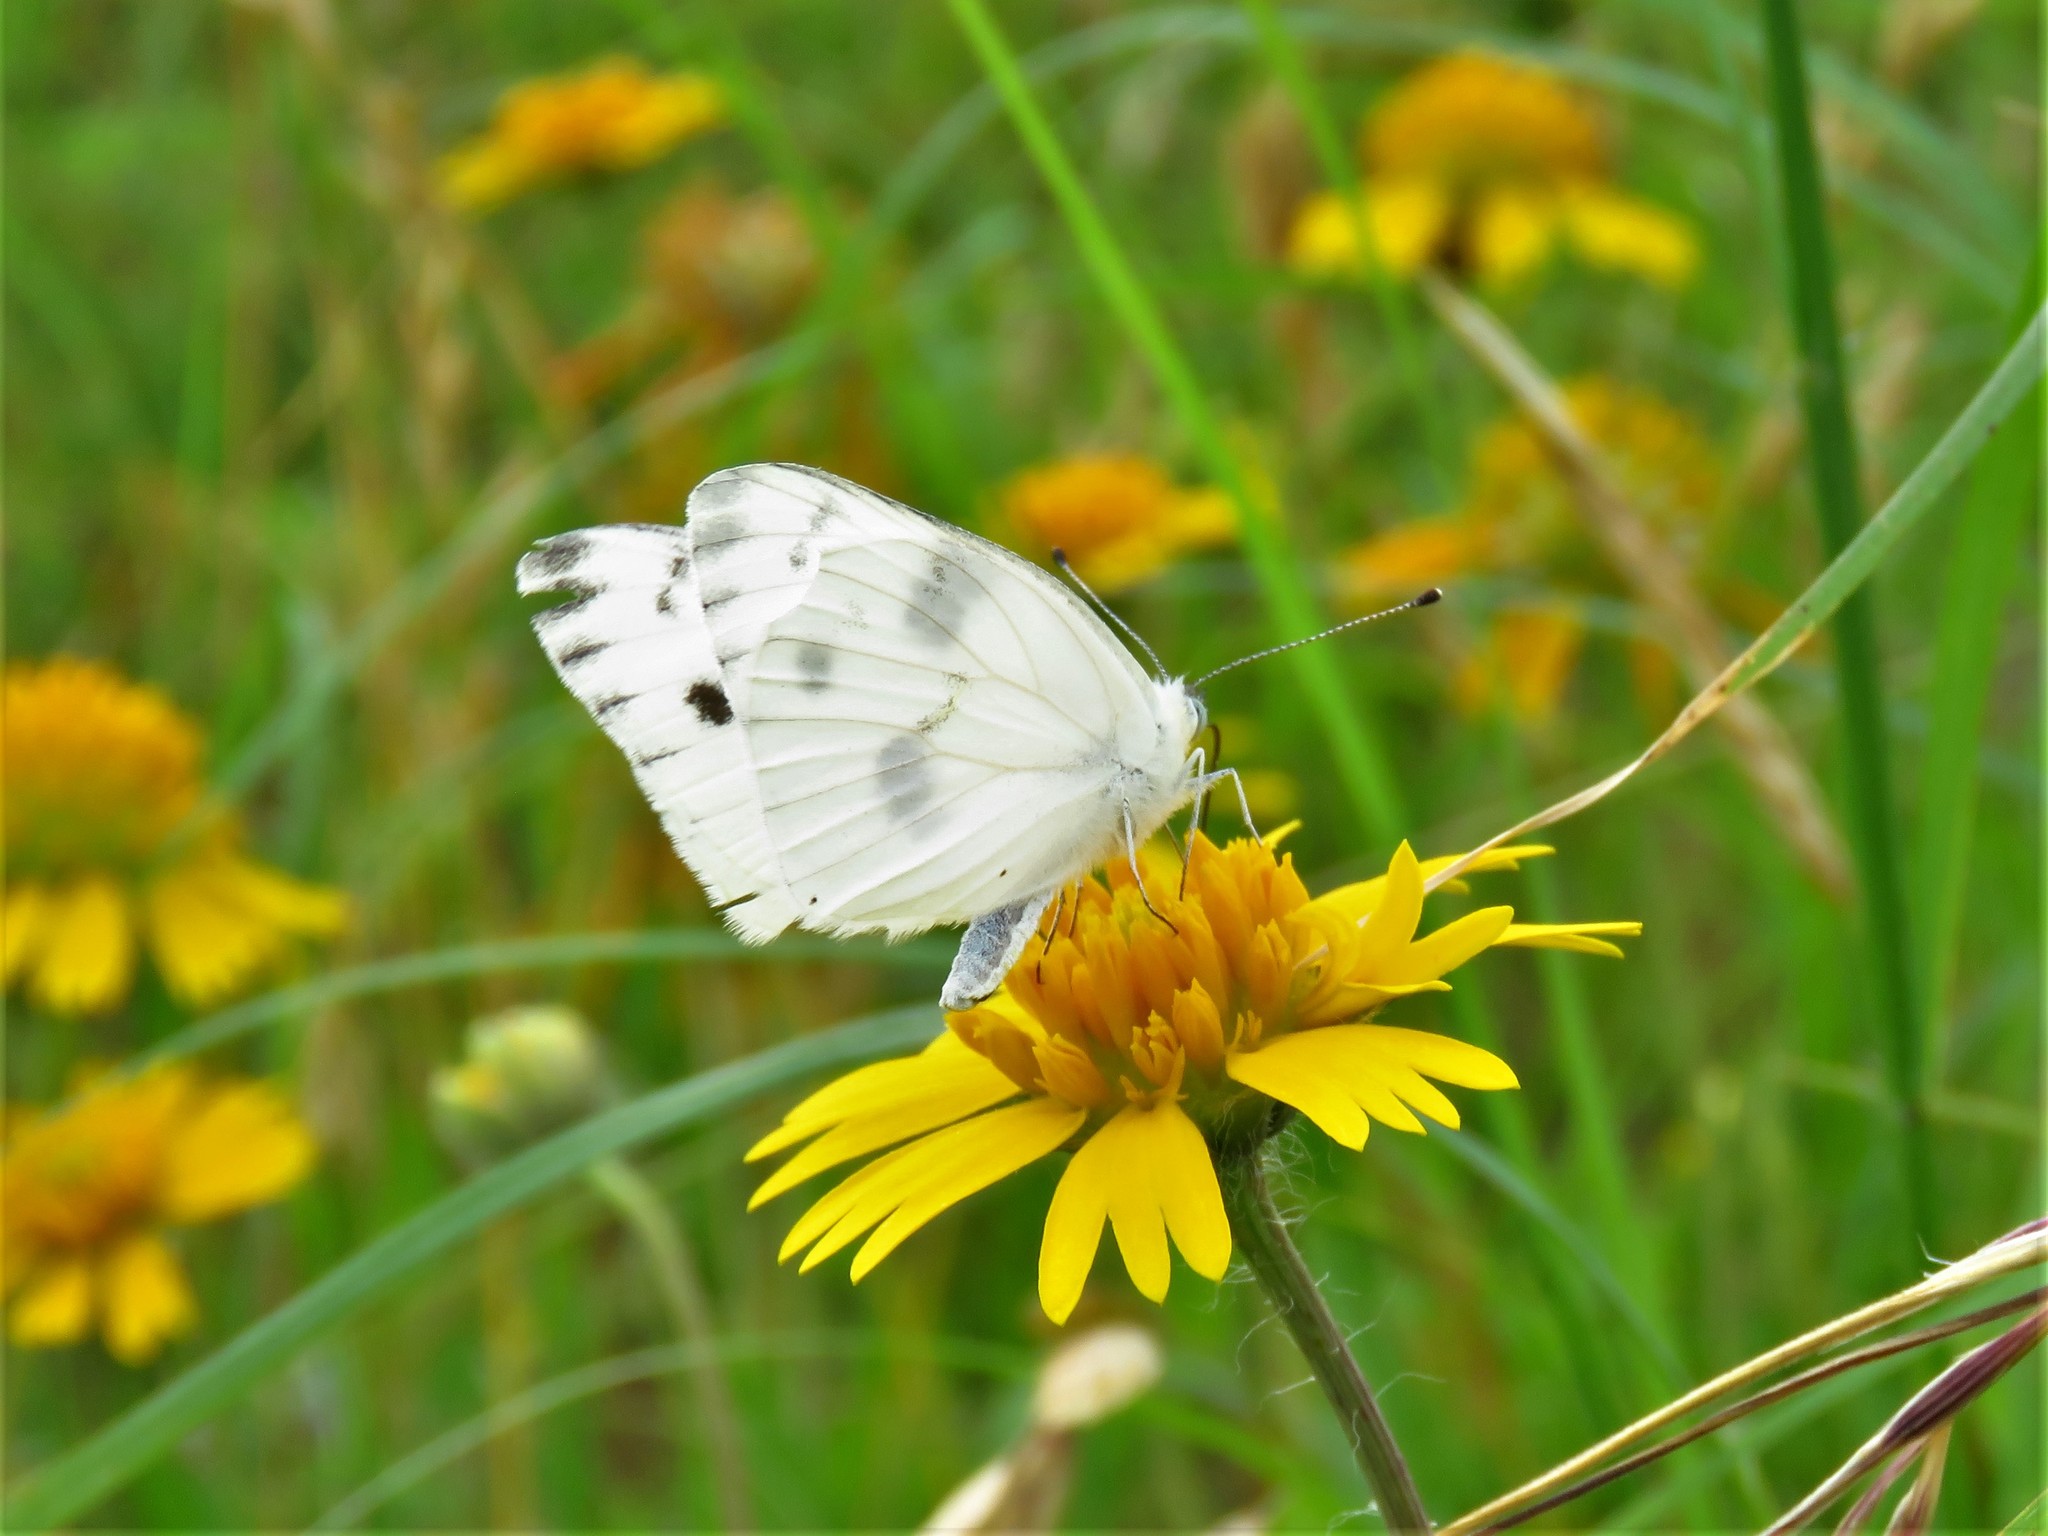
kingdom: Animalia
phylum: Arthropoda
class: Insecta
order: Lepidoptera
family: Pieridae
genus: Pontia
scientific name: Pontia protodice
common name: Checkered white
